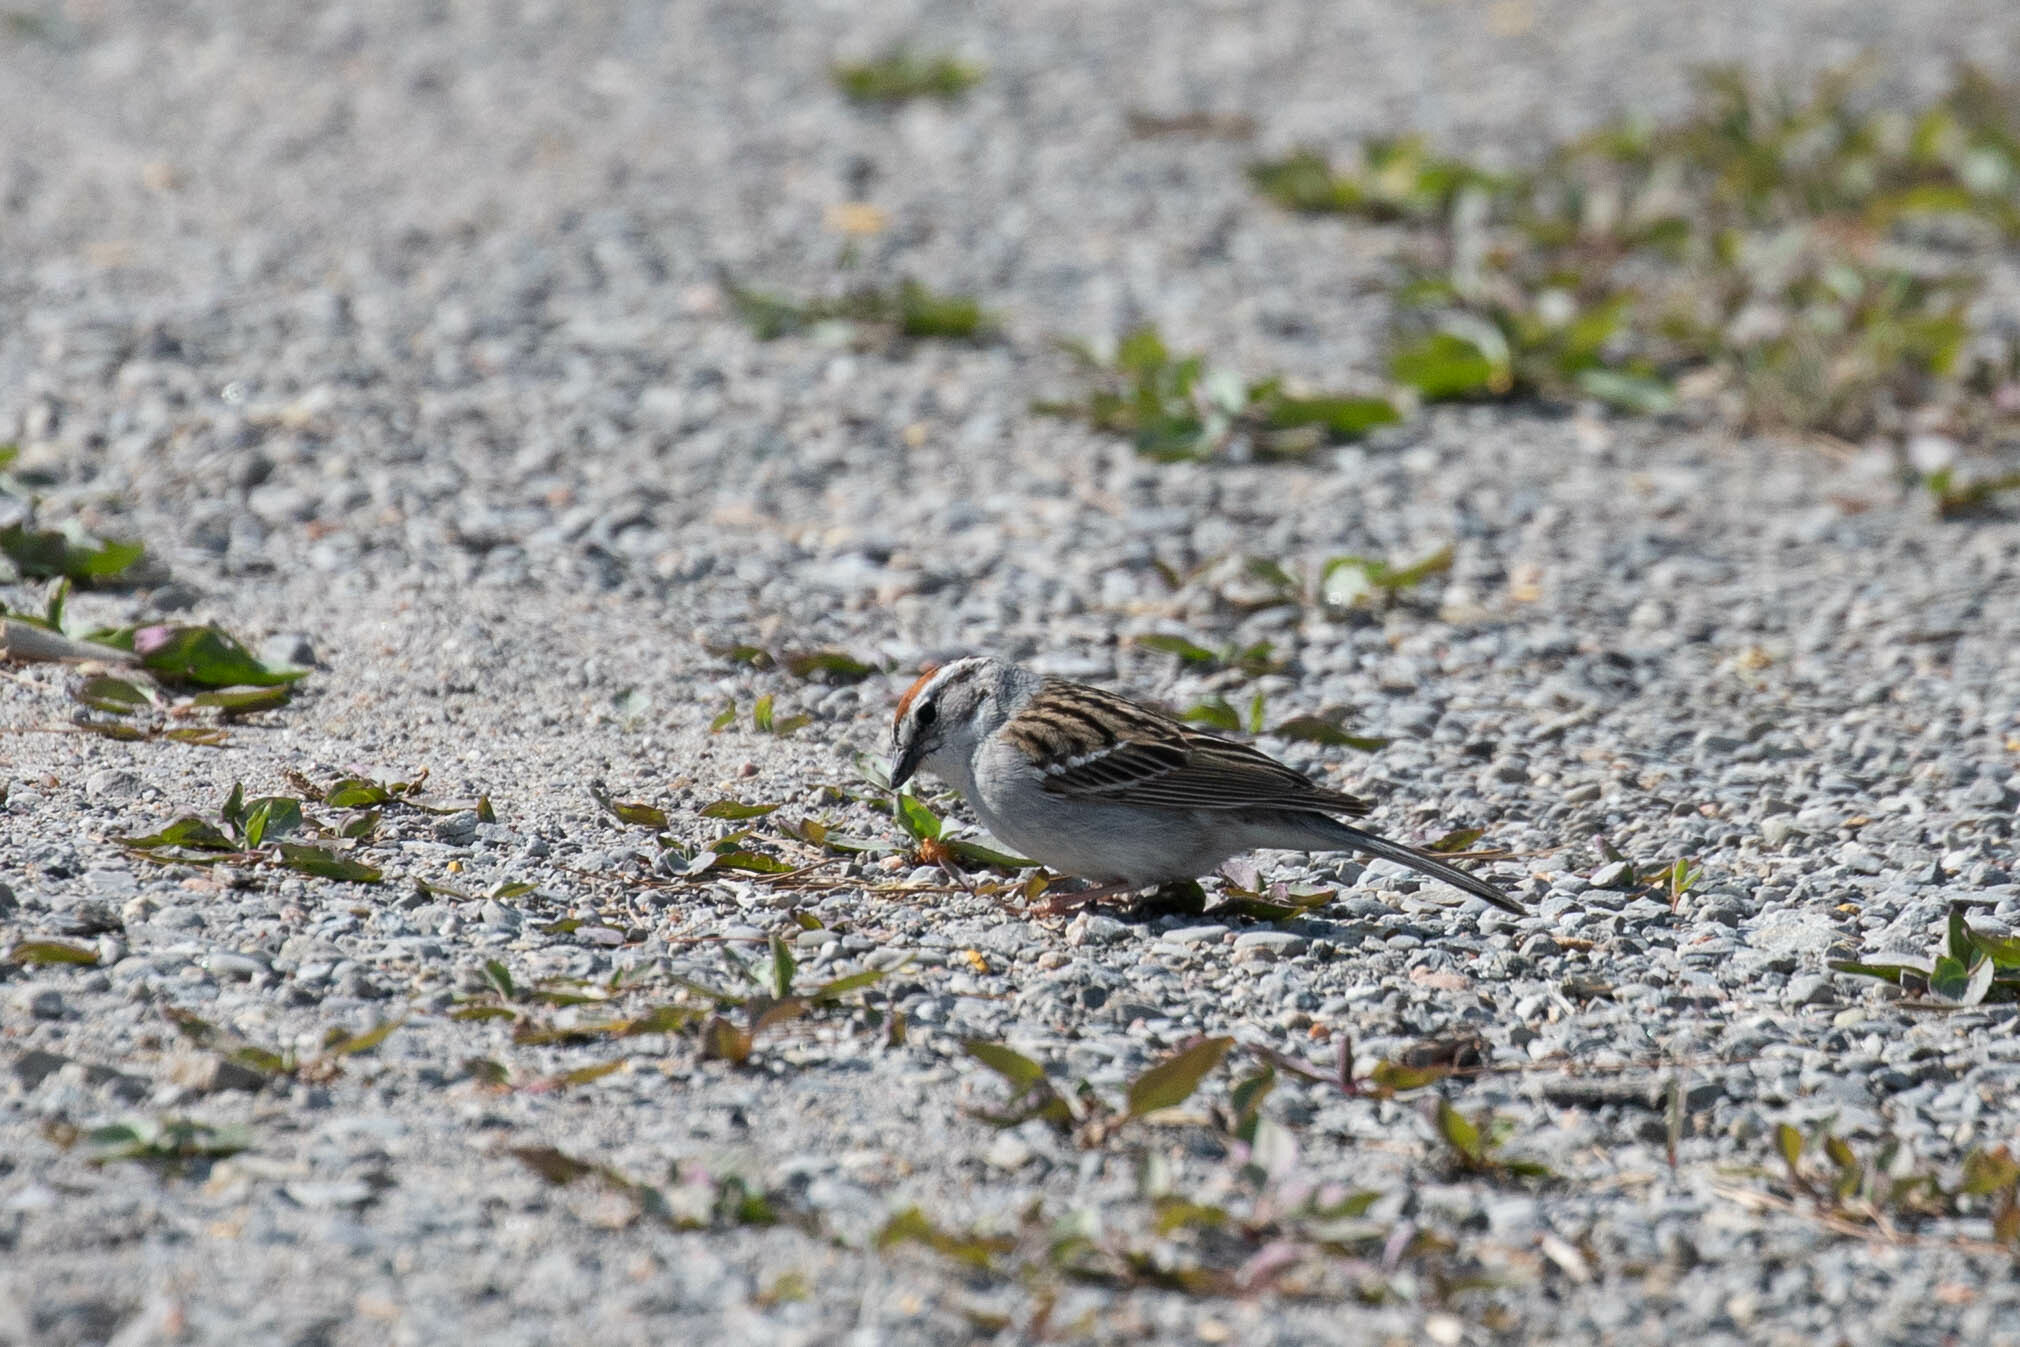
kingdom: Animalia
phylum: Chordata
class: Aves
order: Passeriformes
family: Passerellidae
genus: Spizella
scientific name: Spizella passerina
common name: Chipping sparrow
